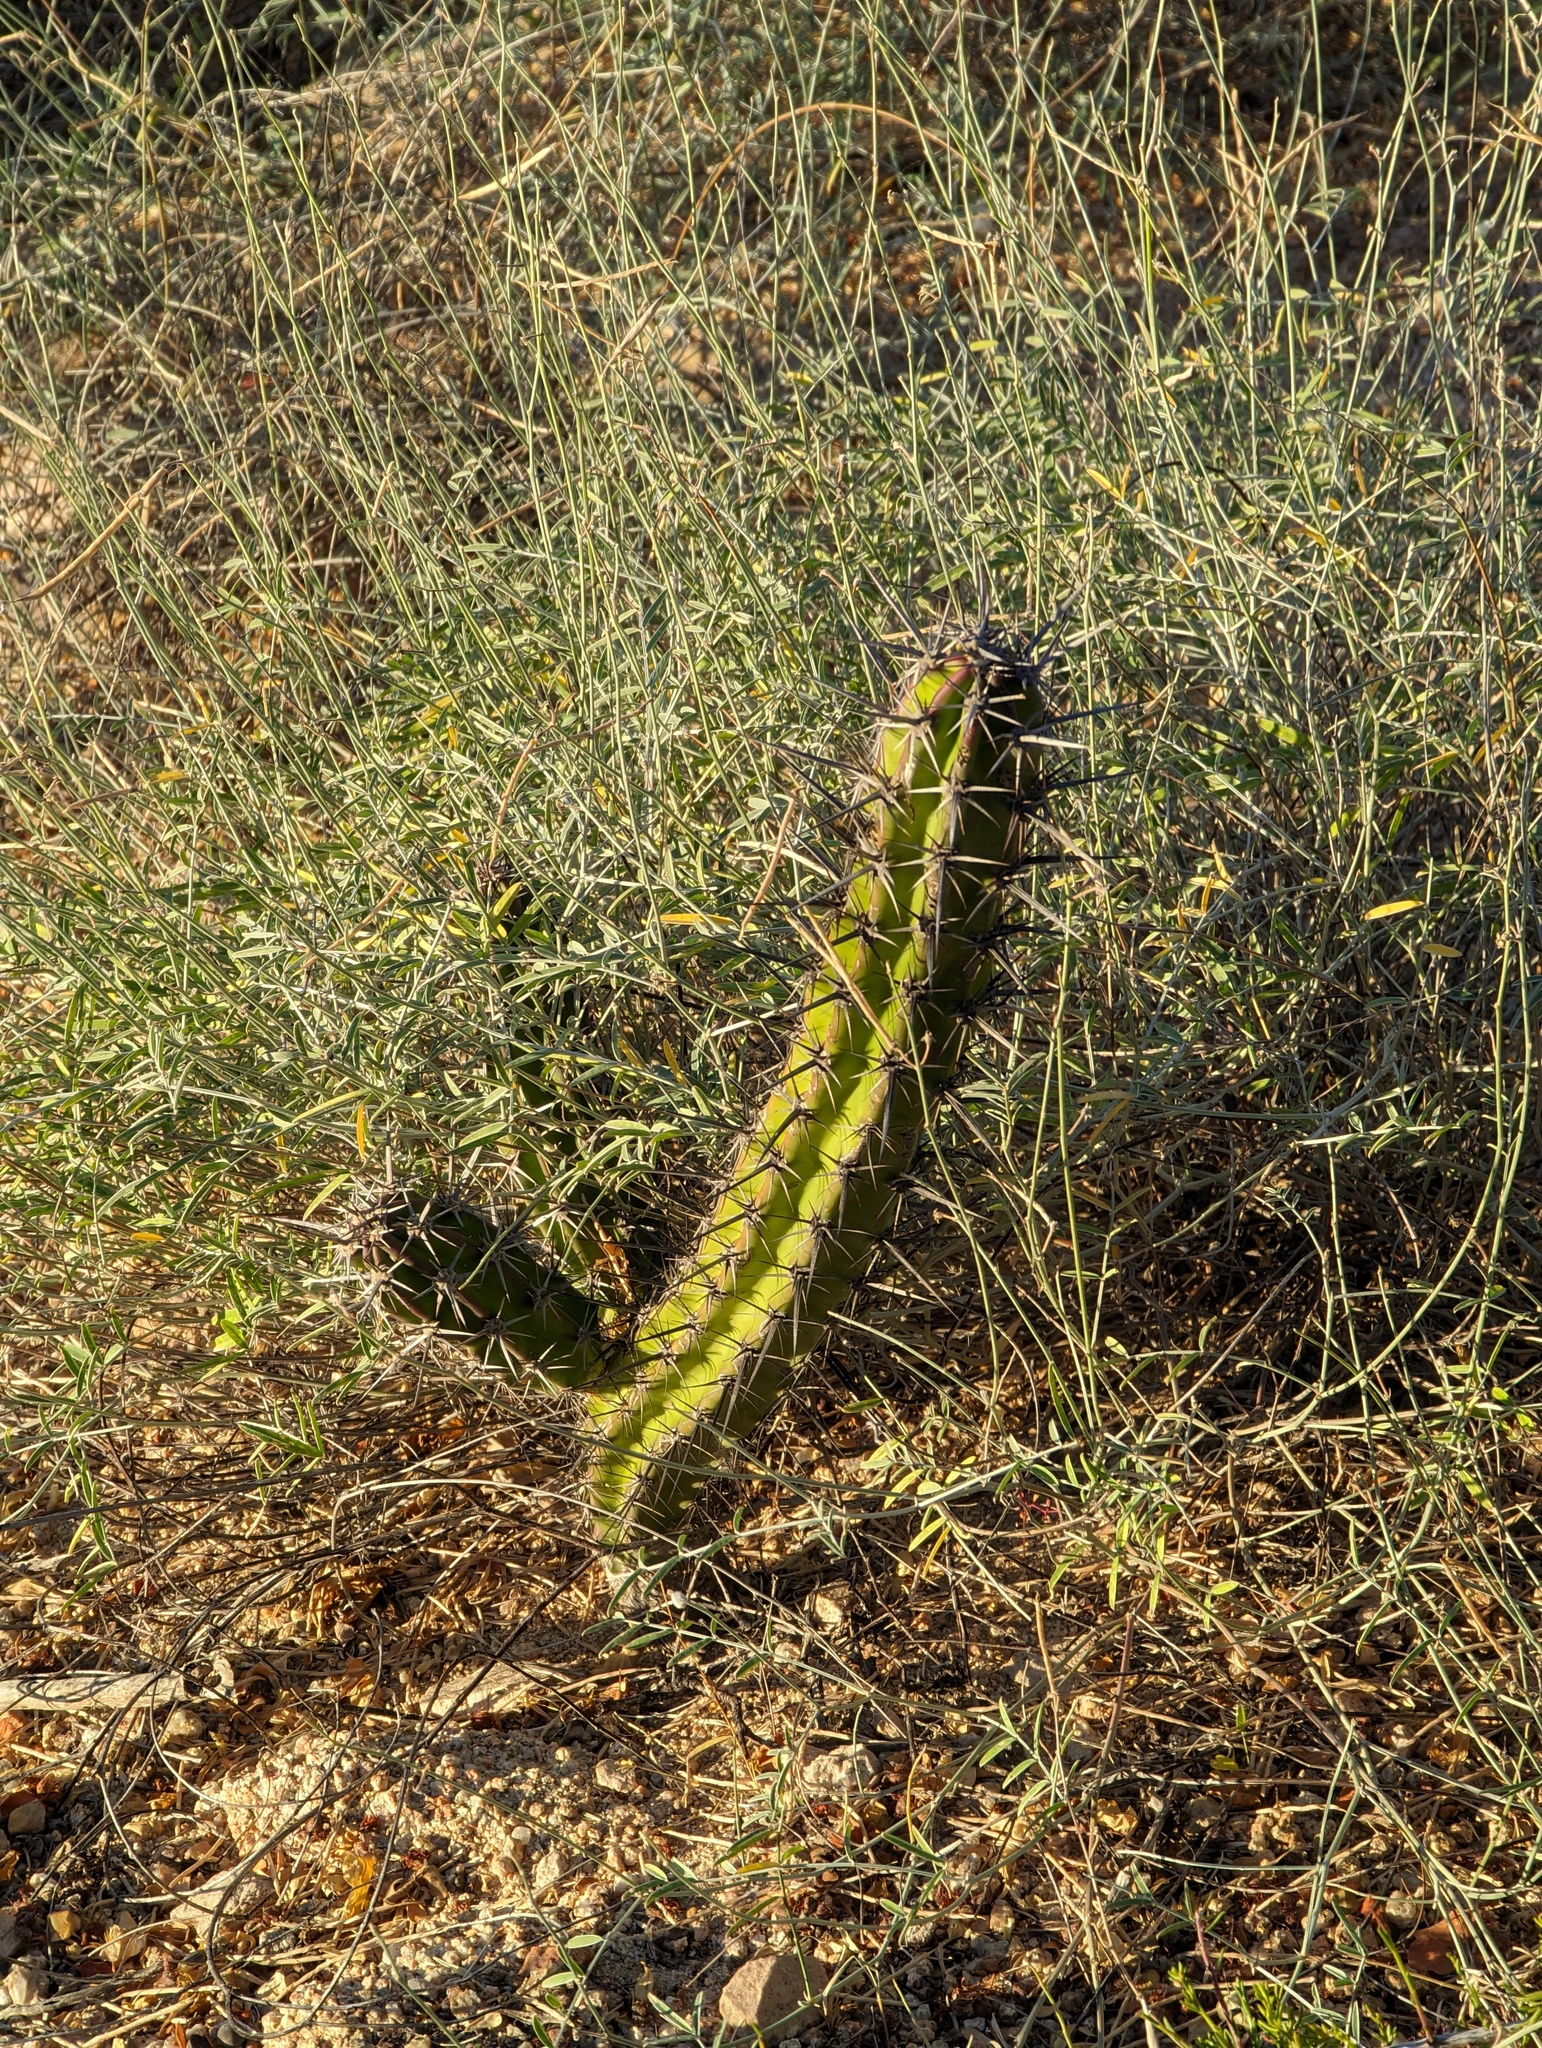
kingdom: Plantae
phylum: Tracheophyta
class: Magnoliopsida
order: Caryophyllales
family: Cactaceae
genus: Stenocereus
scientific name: Stenocereus gummosus
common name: Dagger cactus
